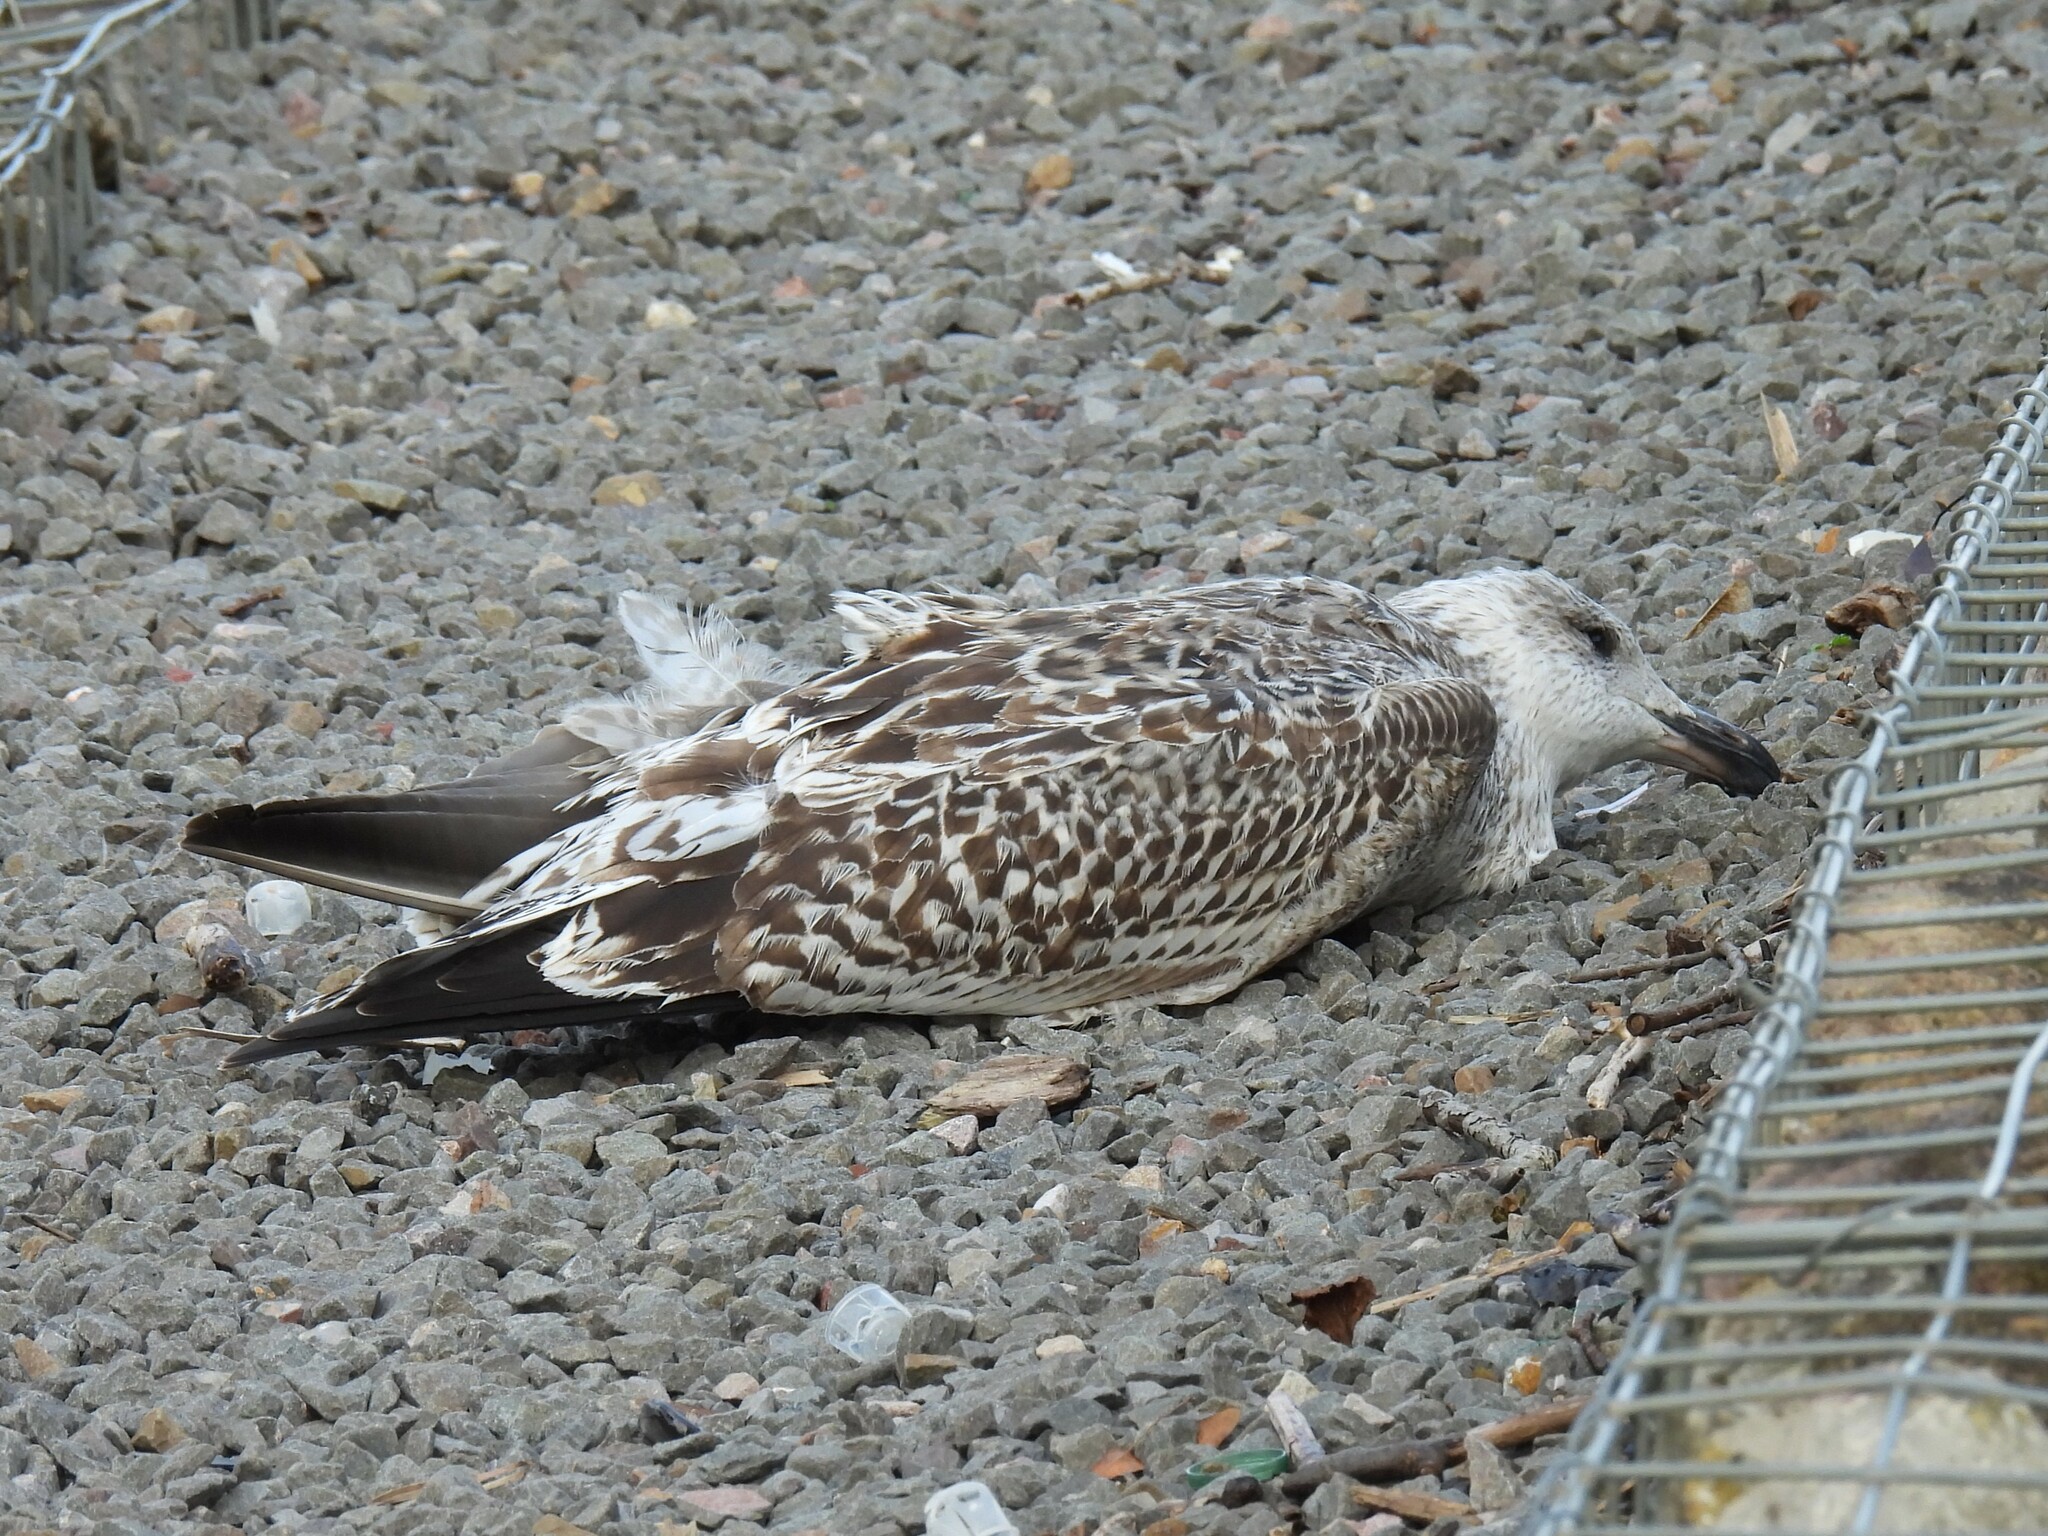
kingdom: Animalia
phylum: Chordata
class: Aves
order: Charadriiformes
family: Laridae
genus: Larus
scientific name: Larus marinus
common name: Great black-backed gull
